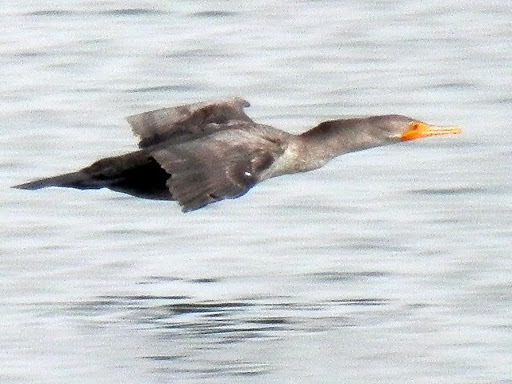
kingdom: Animalia
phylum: Chordata
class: Aves
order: Suliformes
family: Phalacrocoracidae
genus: Phalacrocorax
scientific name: Phalacrocorax auritus
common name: Double-crested cormorant
